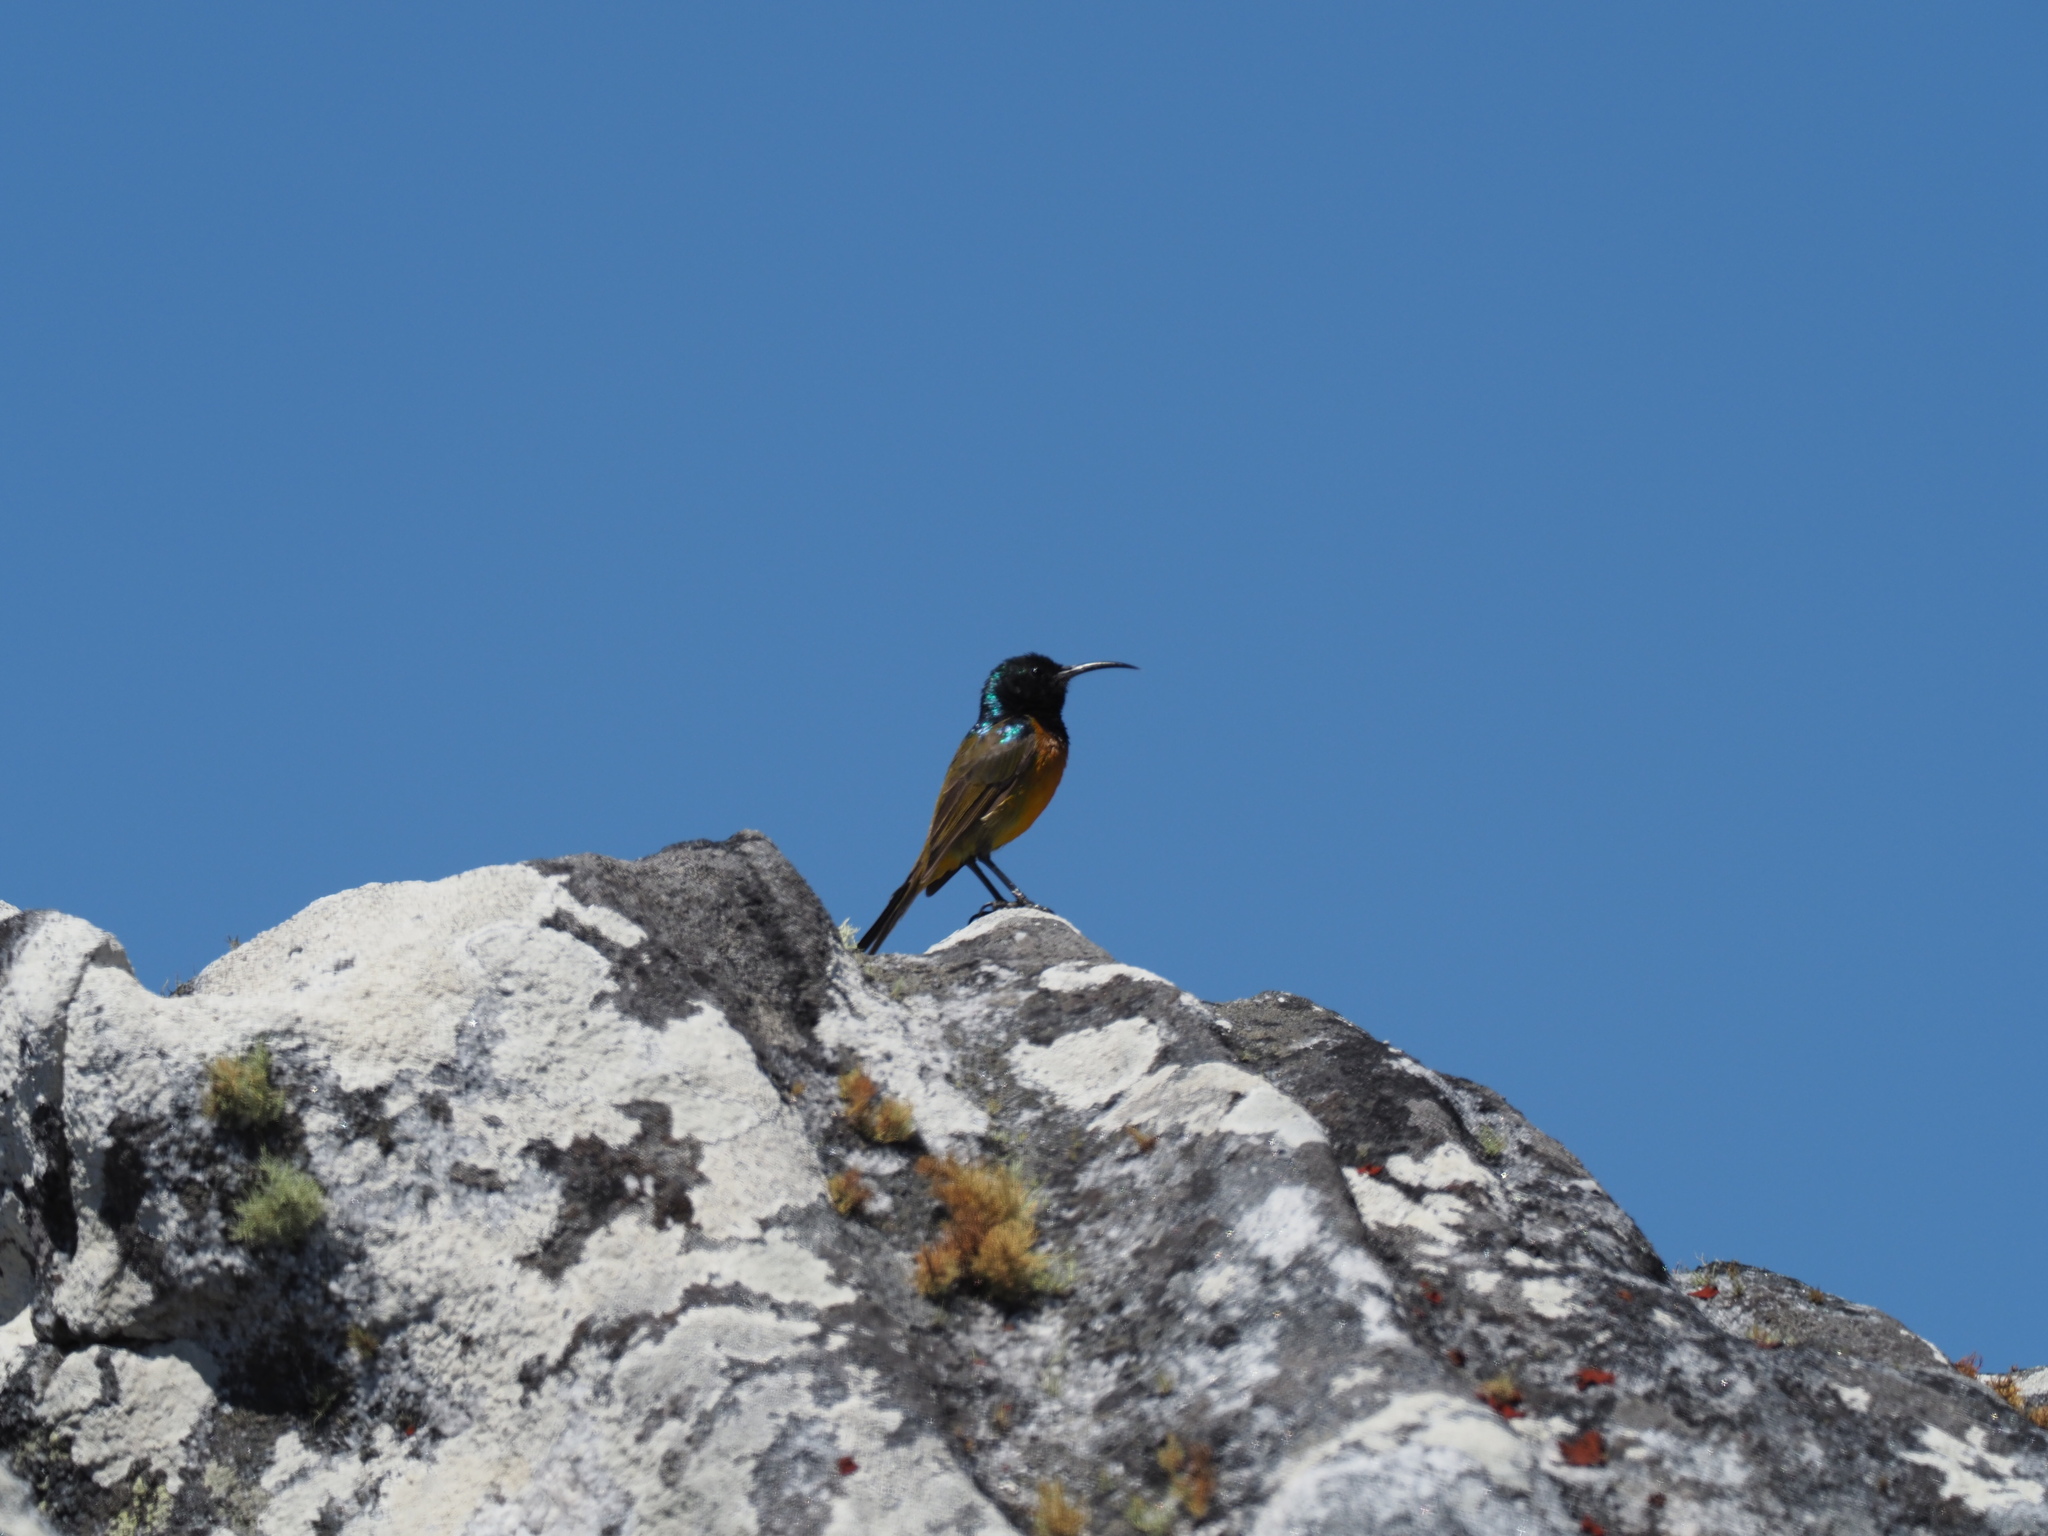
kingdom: Animalia
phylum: Chordata
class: Aves
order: Passeriformes
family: Nectariniidae
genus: Anthobaphes
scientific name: Anthobaphes violacea
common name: Orange-breasted sunbird
